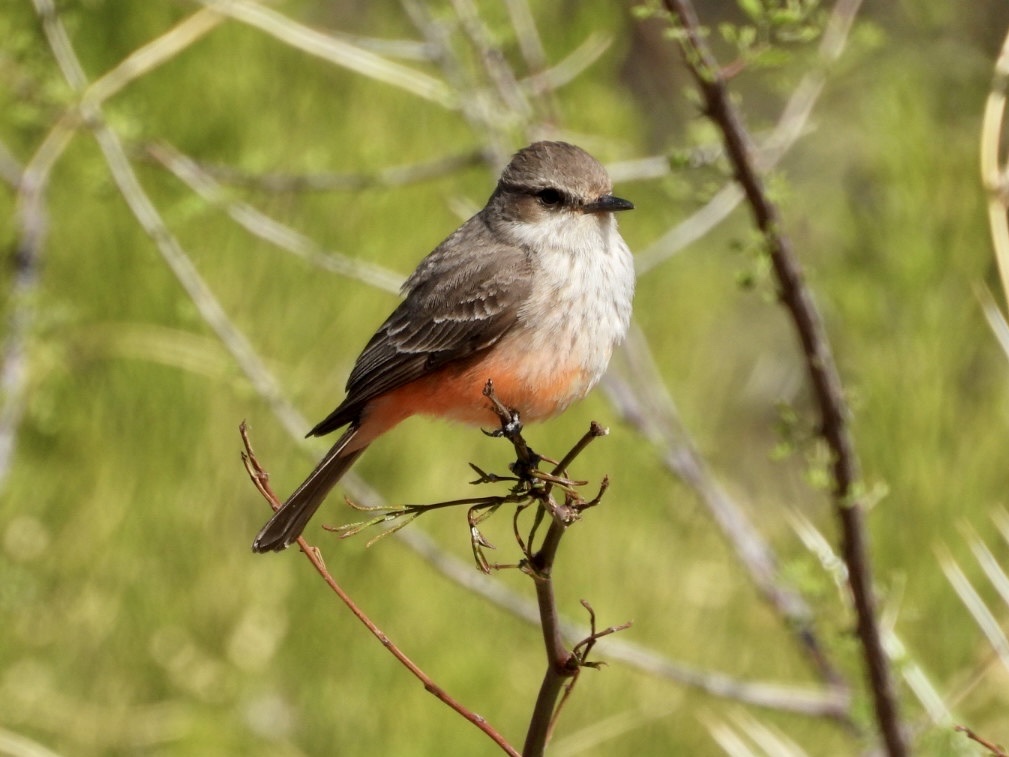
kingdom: Animalia
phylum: Chordata
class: Aves
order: Passeriformes
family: Tyrannidae
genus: Pyrocephalus
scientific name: Pyrocephalus rubinus
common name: Vermilion flycatcher
